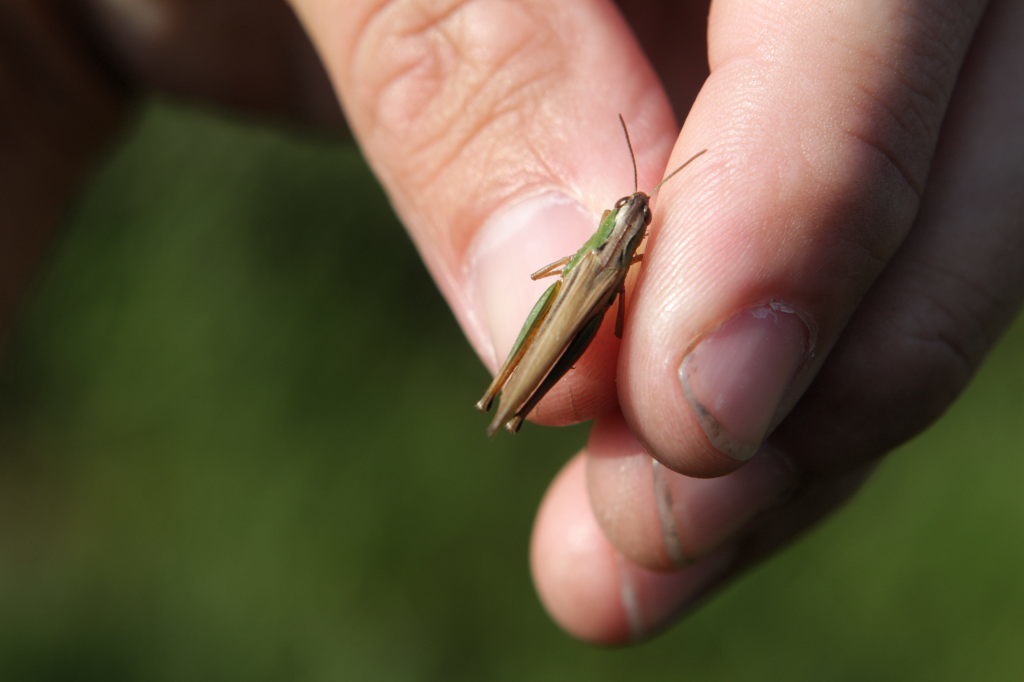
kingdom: Animalia
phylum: Arthropoda
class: Insecta
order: Orthoptera
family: Acrididae
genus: Pseudochorthippus
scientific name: Pseudochorthippus
